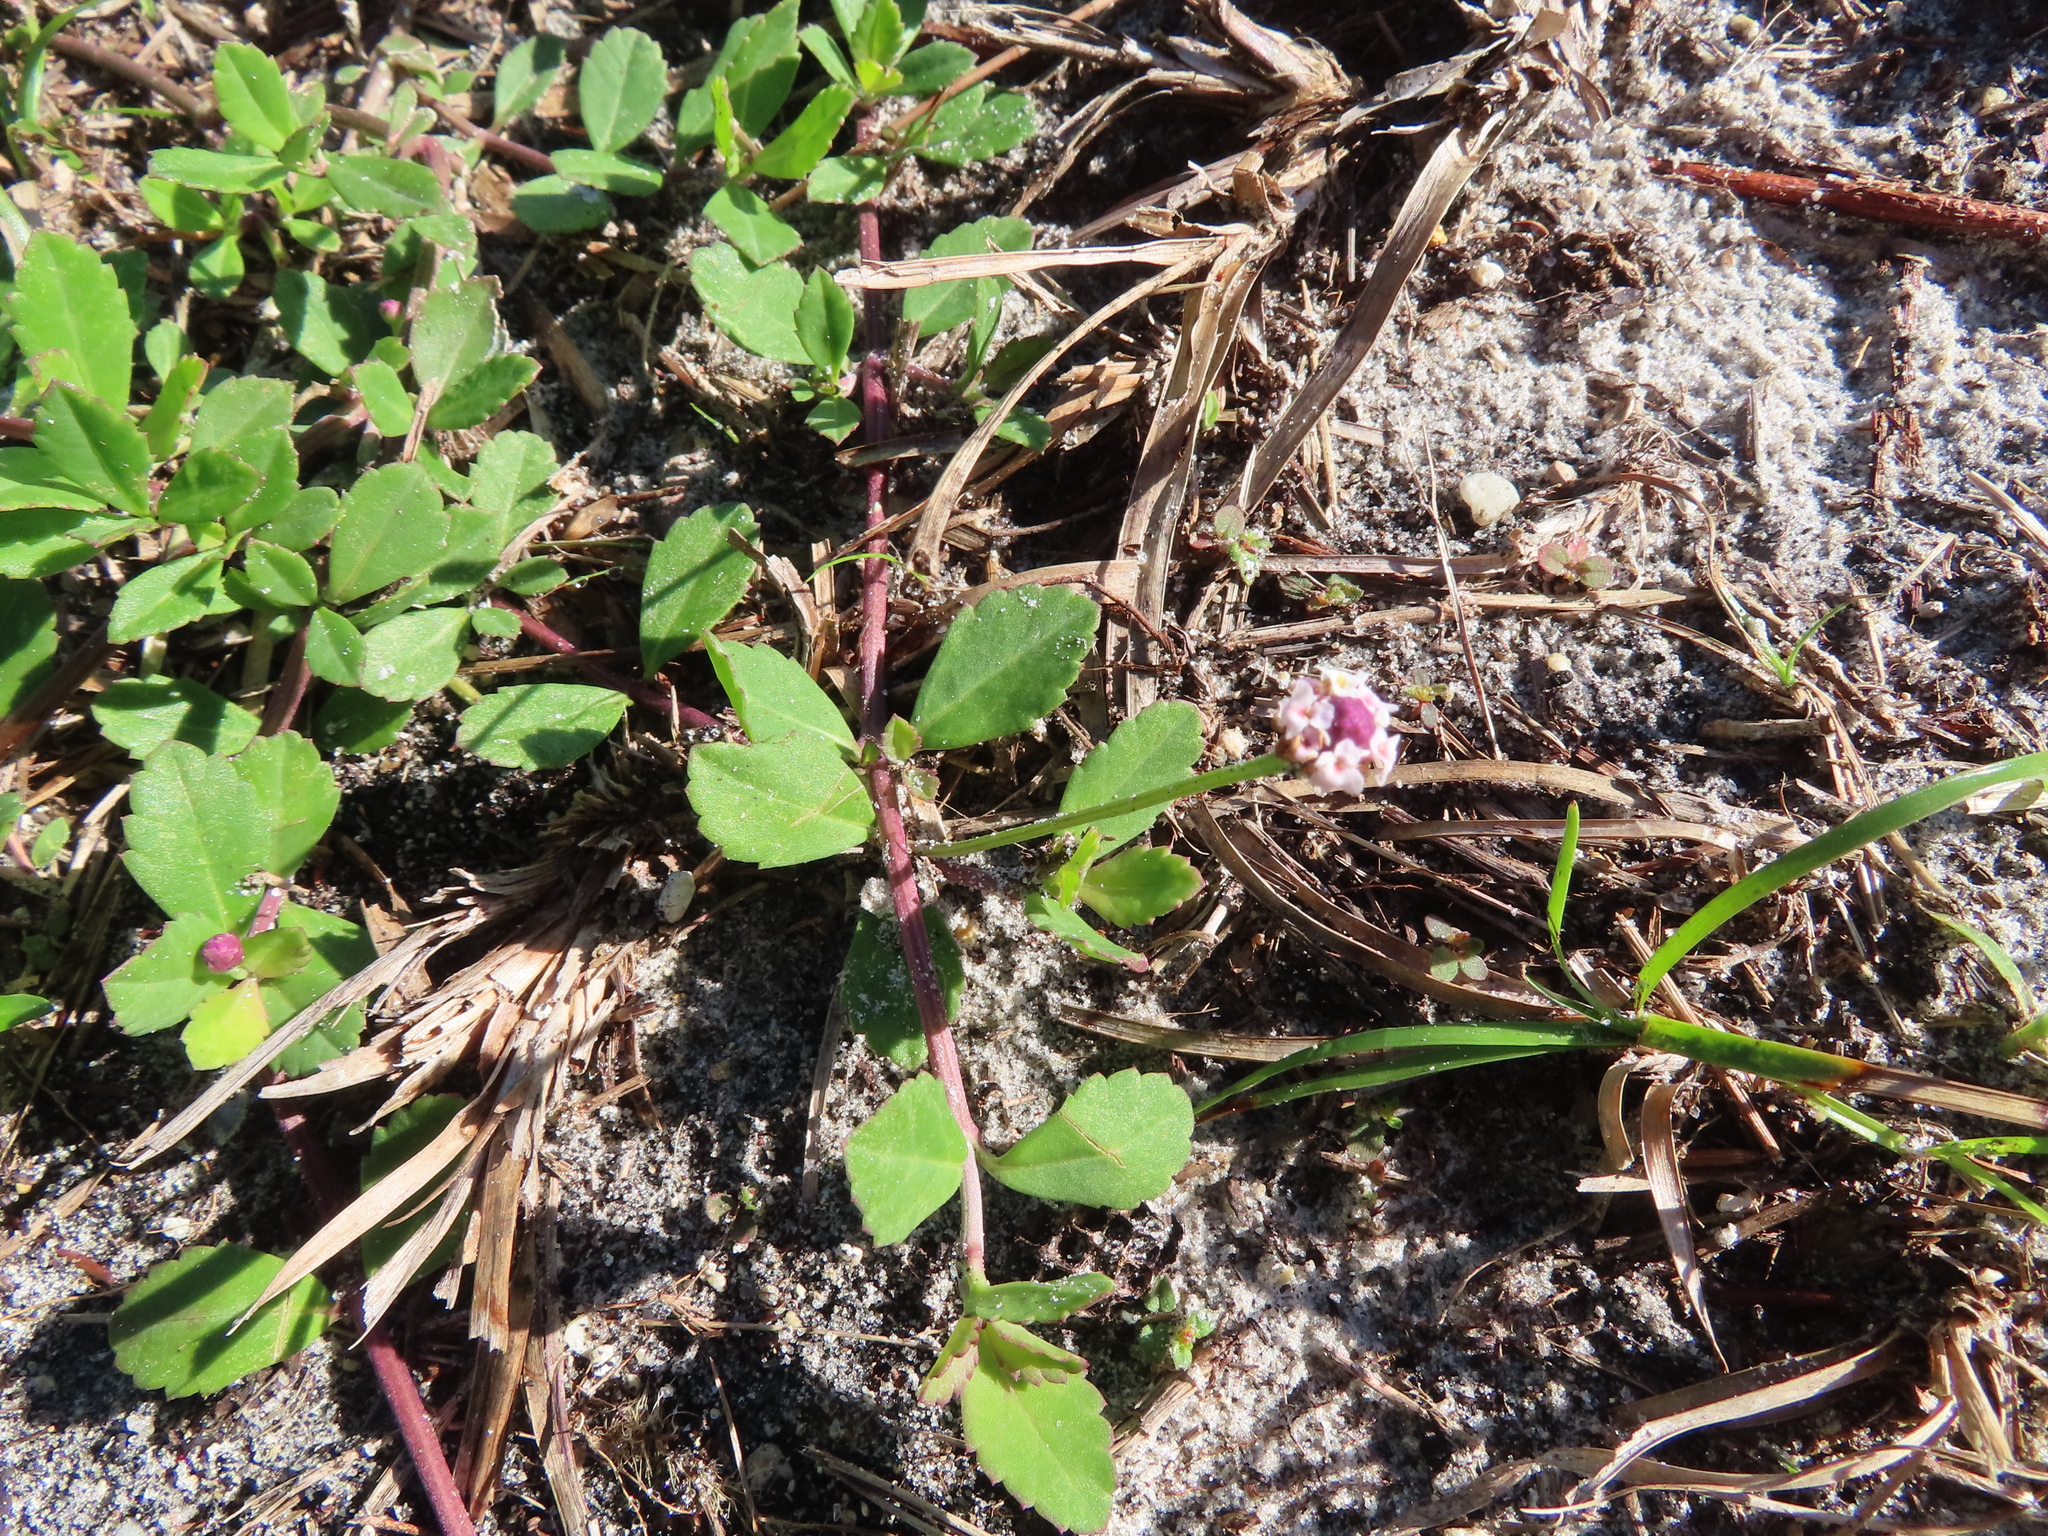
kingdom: Plantae
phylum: Tracheophyta
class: Magnoliopsida
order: Lamiales
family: Verbenaceae
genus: Phyla
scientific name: Phyla nodiflora
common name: Frogfruit
